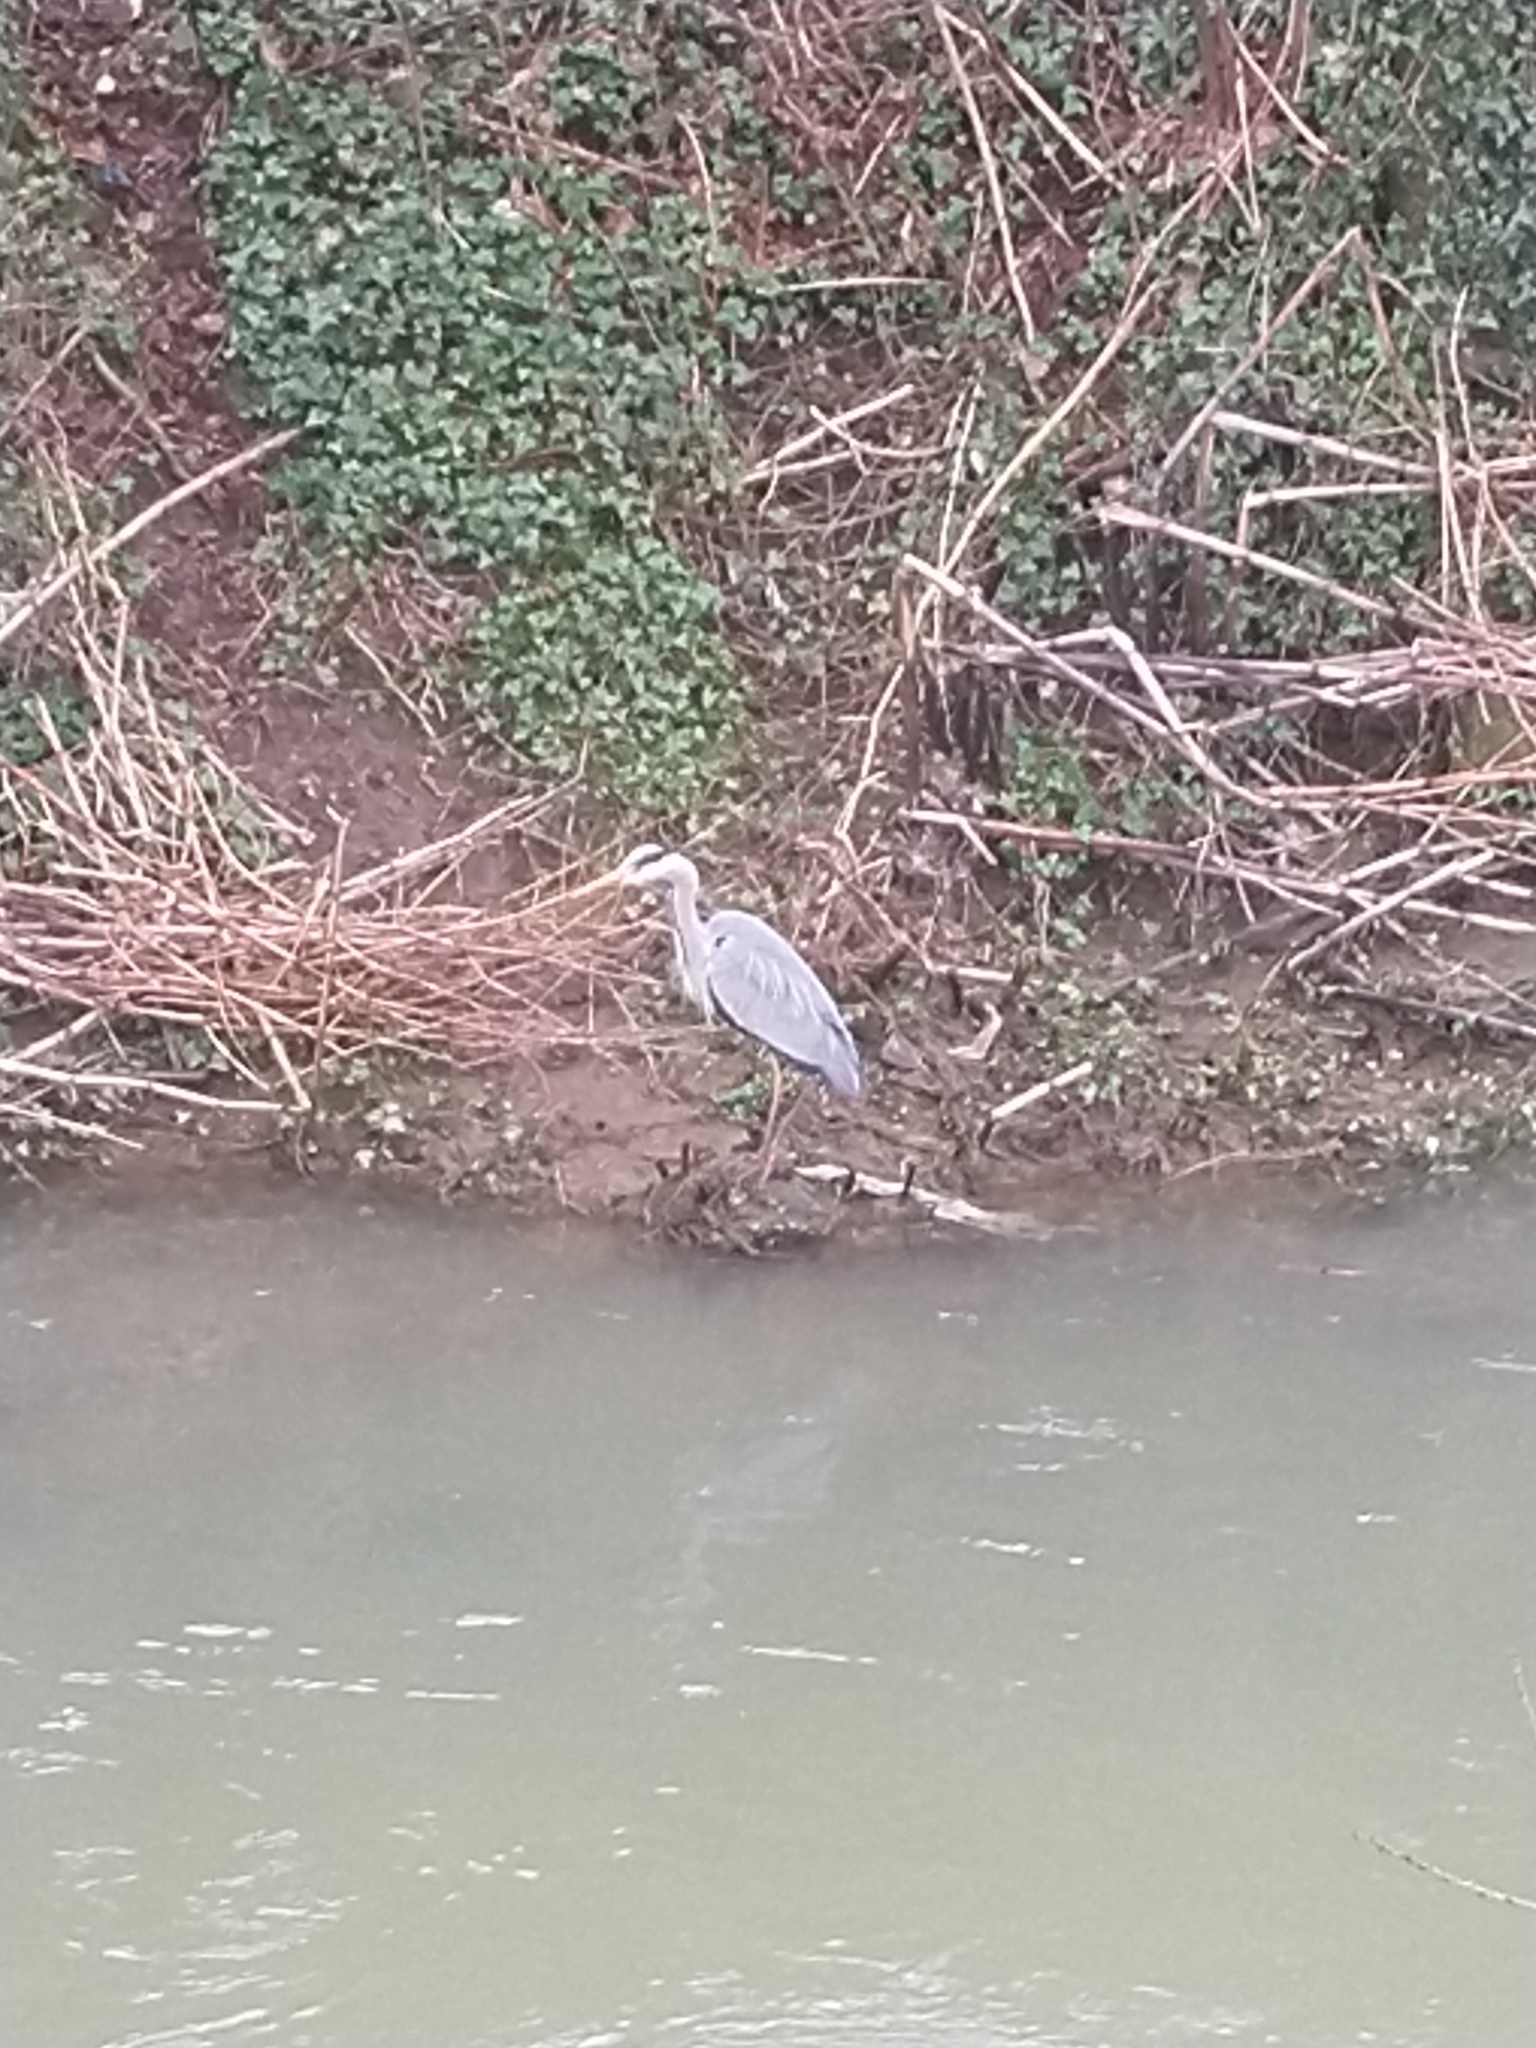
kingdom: Animalia
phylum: Chordata
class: Aves
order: Pelecaniformes
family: Ardeidae
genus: Ardea
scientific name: Ardea cinerea
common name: Grey heron
